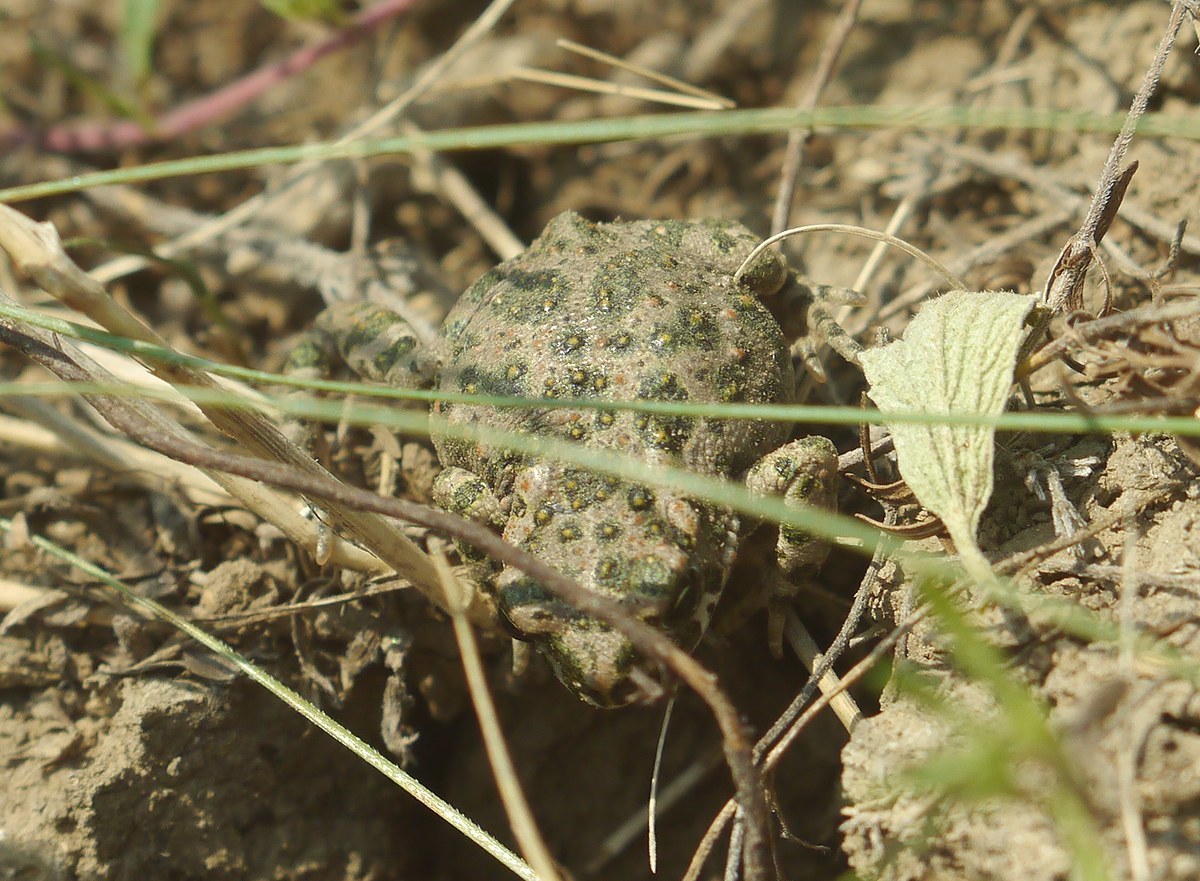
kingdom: Animalia
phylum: Chordata
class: Amphibia
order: Anura
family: Bufonidae
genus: Bufotes
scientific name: Bufotes viridis
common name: European green toad
